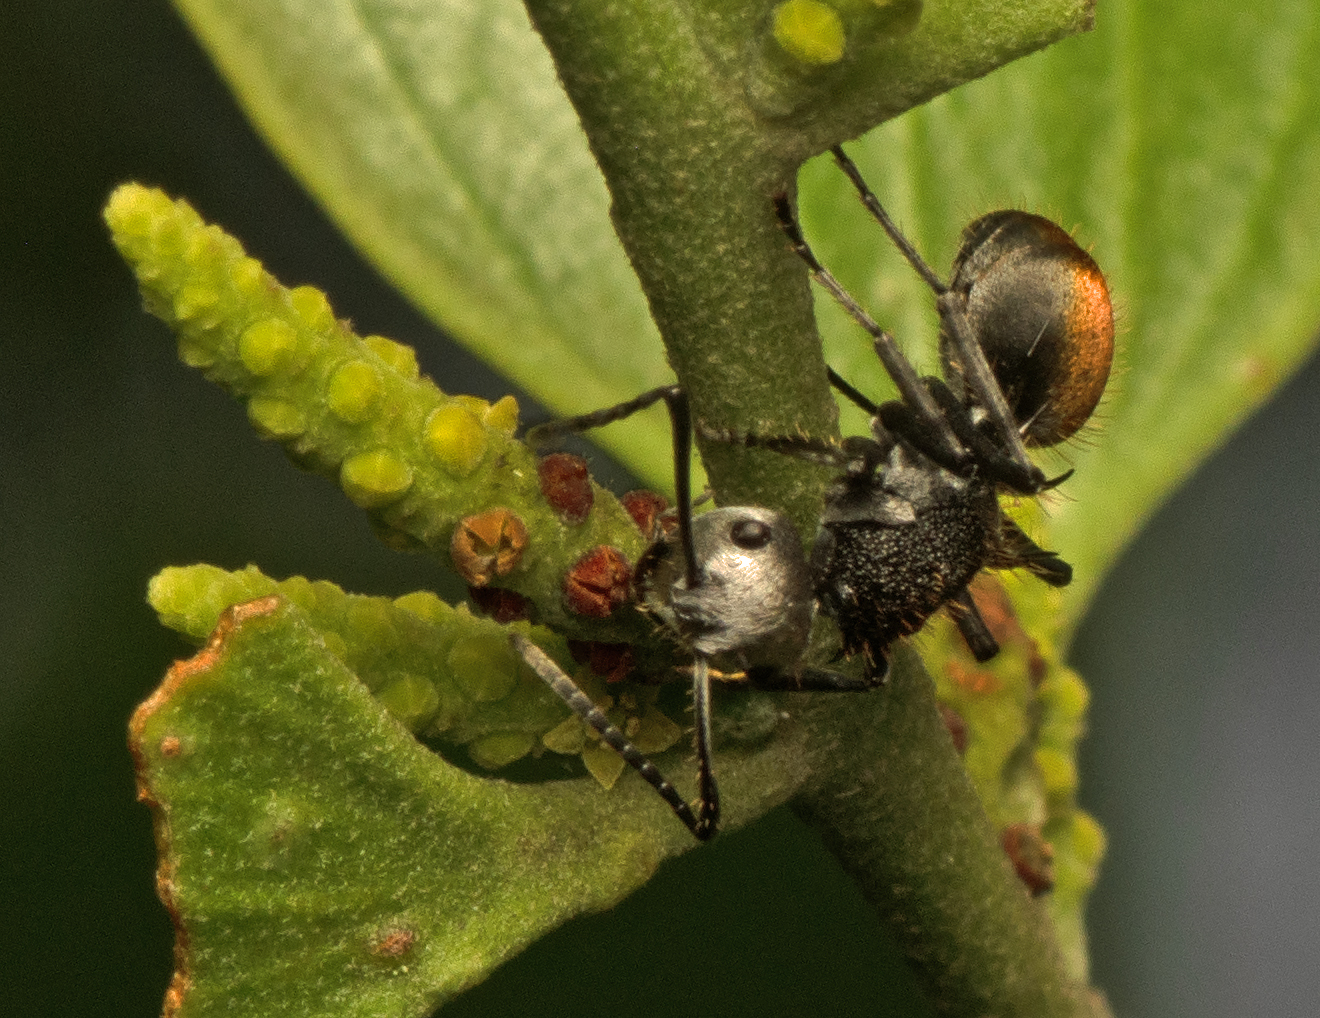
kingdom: Animalia
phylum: Arthropoda
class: Insecta
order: Hymenoptera
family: Formicidae
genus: Polyrhachis
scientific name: Polyrhachis senilis
